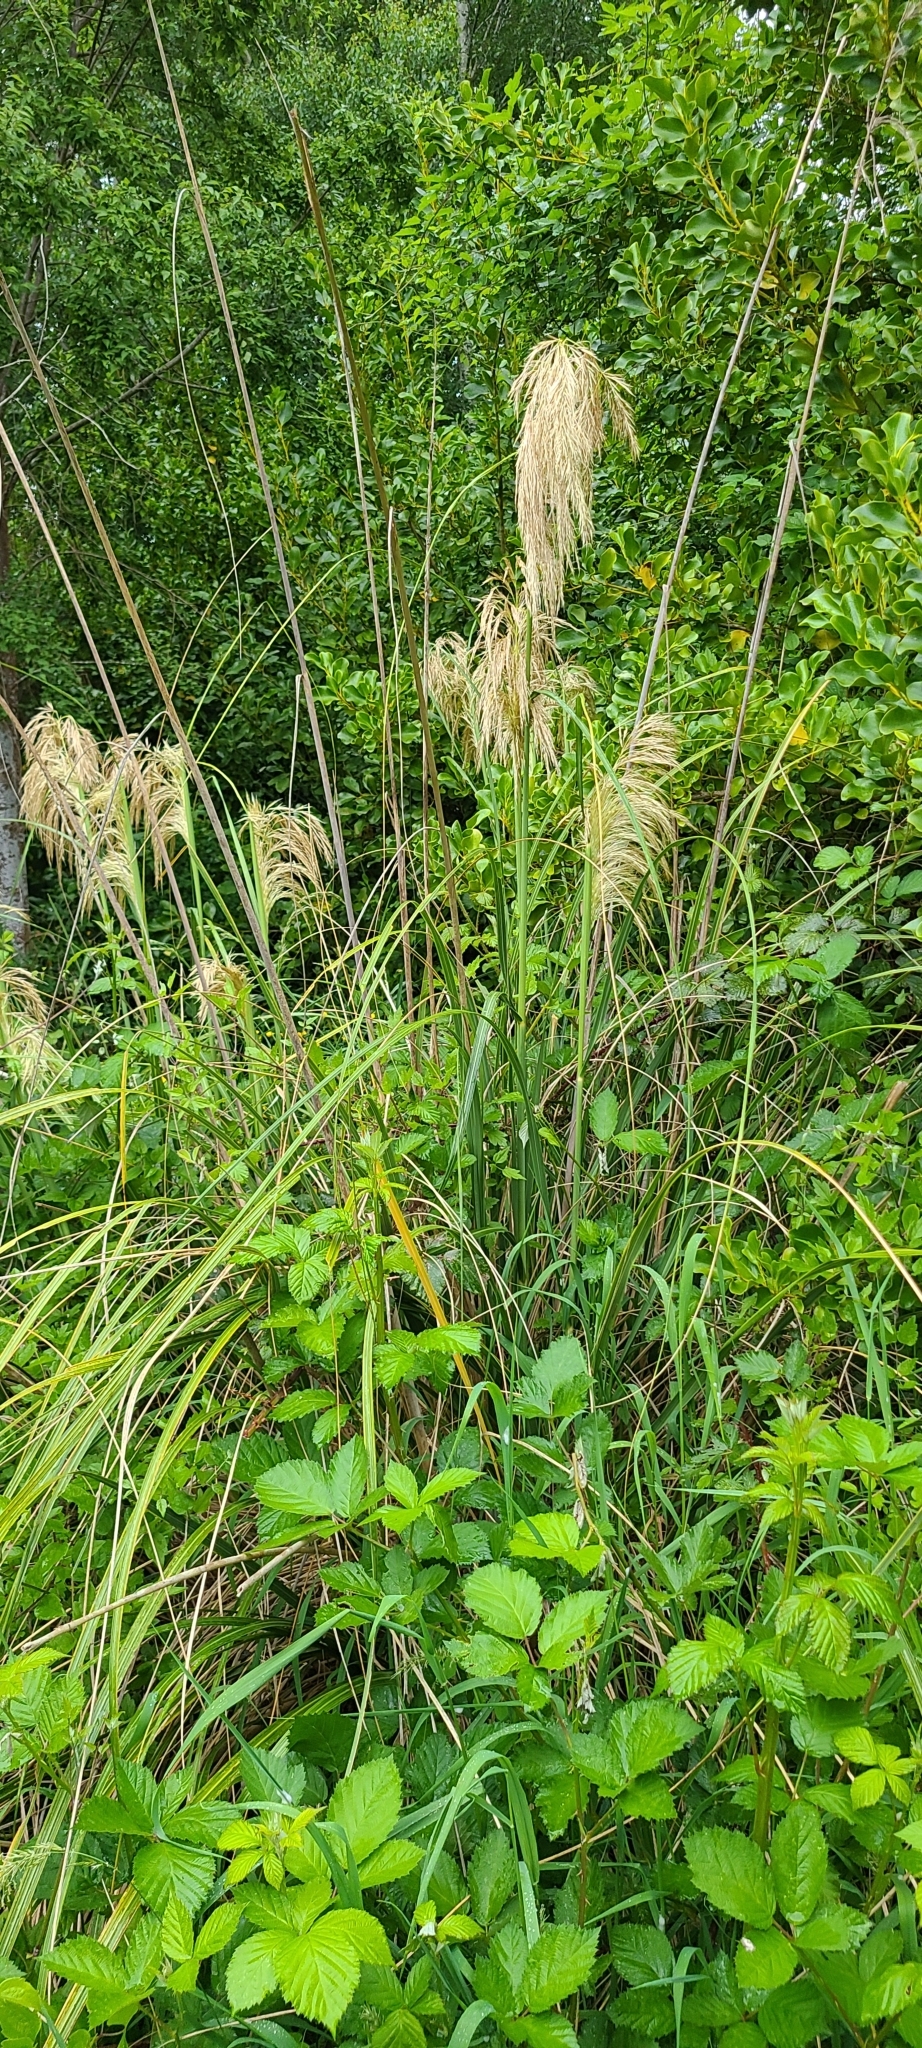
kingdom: Plantae
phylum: Tracheophyta
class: Liliopsida
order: Poales
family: Poaceae
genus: Austroderia
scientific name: Austroderia richardii
